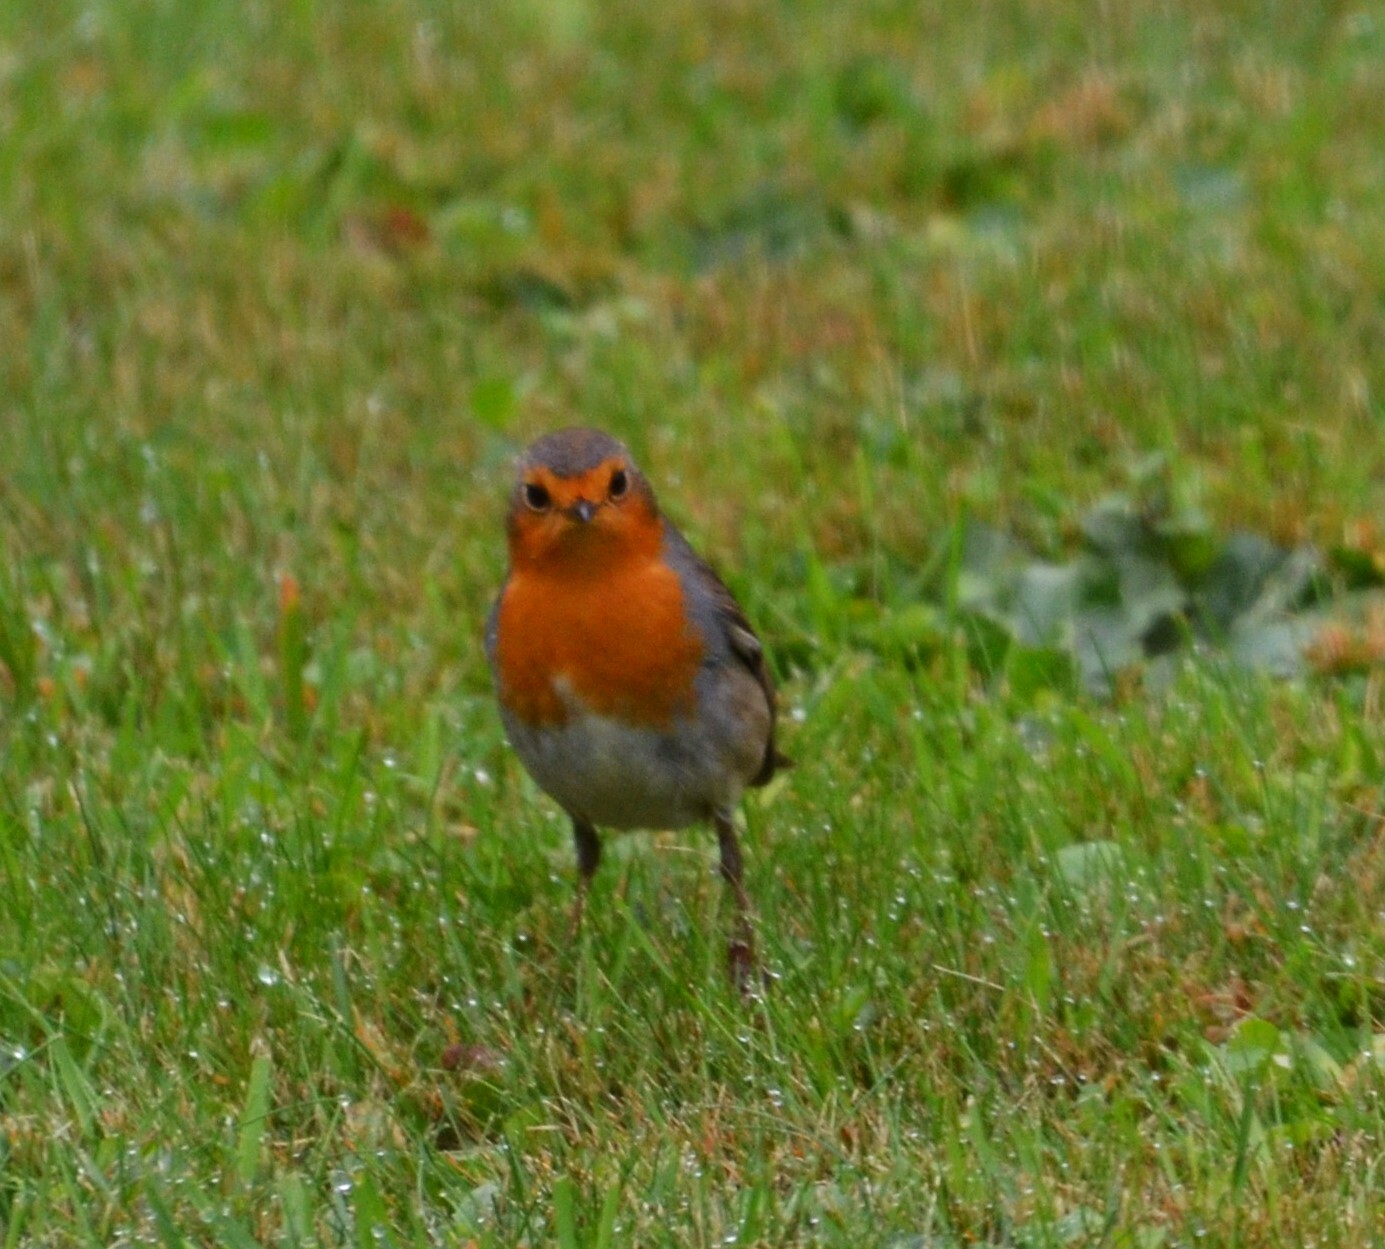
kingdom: Animalia
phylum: Chordata
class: Aves
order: Passeriformes
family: Muscicapidae
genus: Erithacus
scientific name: Erithacus rubecula
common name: European robin
